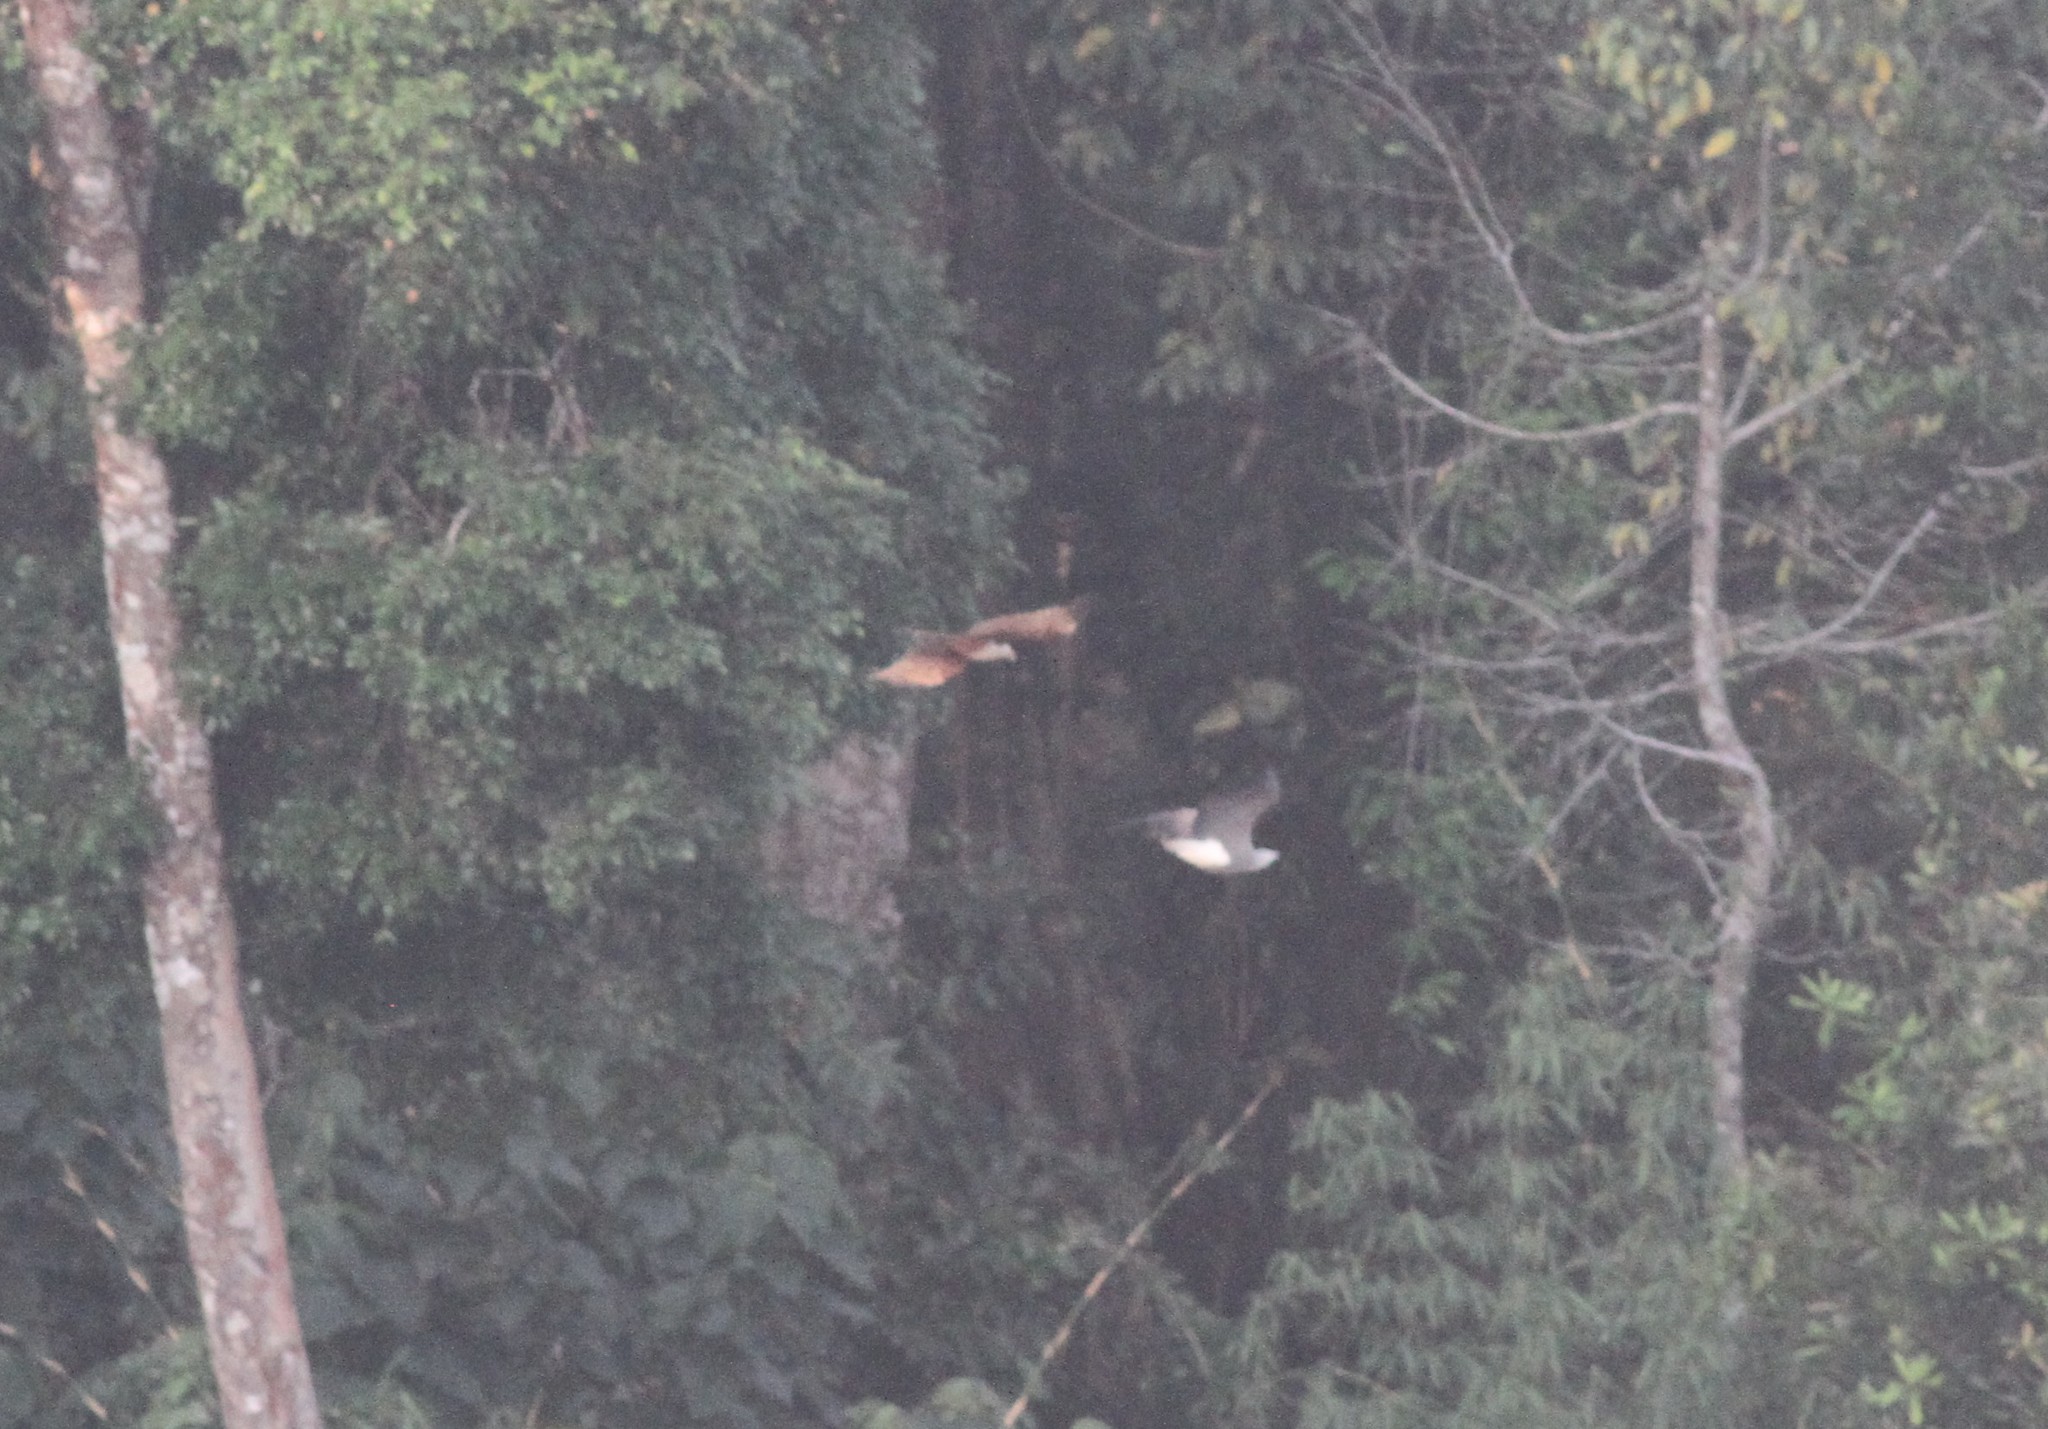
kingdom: Animalia
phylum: Chordata
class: Aves
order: Accipitriformes
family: Accipitridae
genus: Icthyophaga
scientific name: Icthyophaga humilis
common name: Lesser fish-eagle
